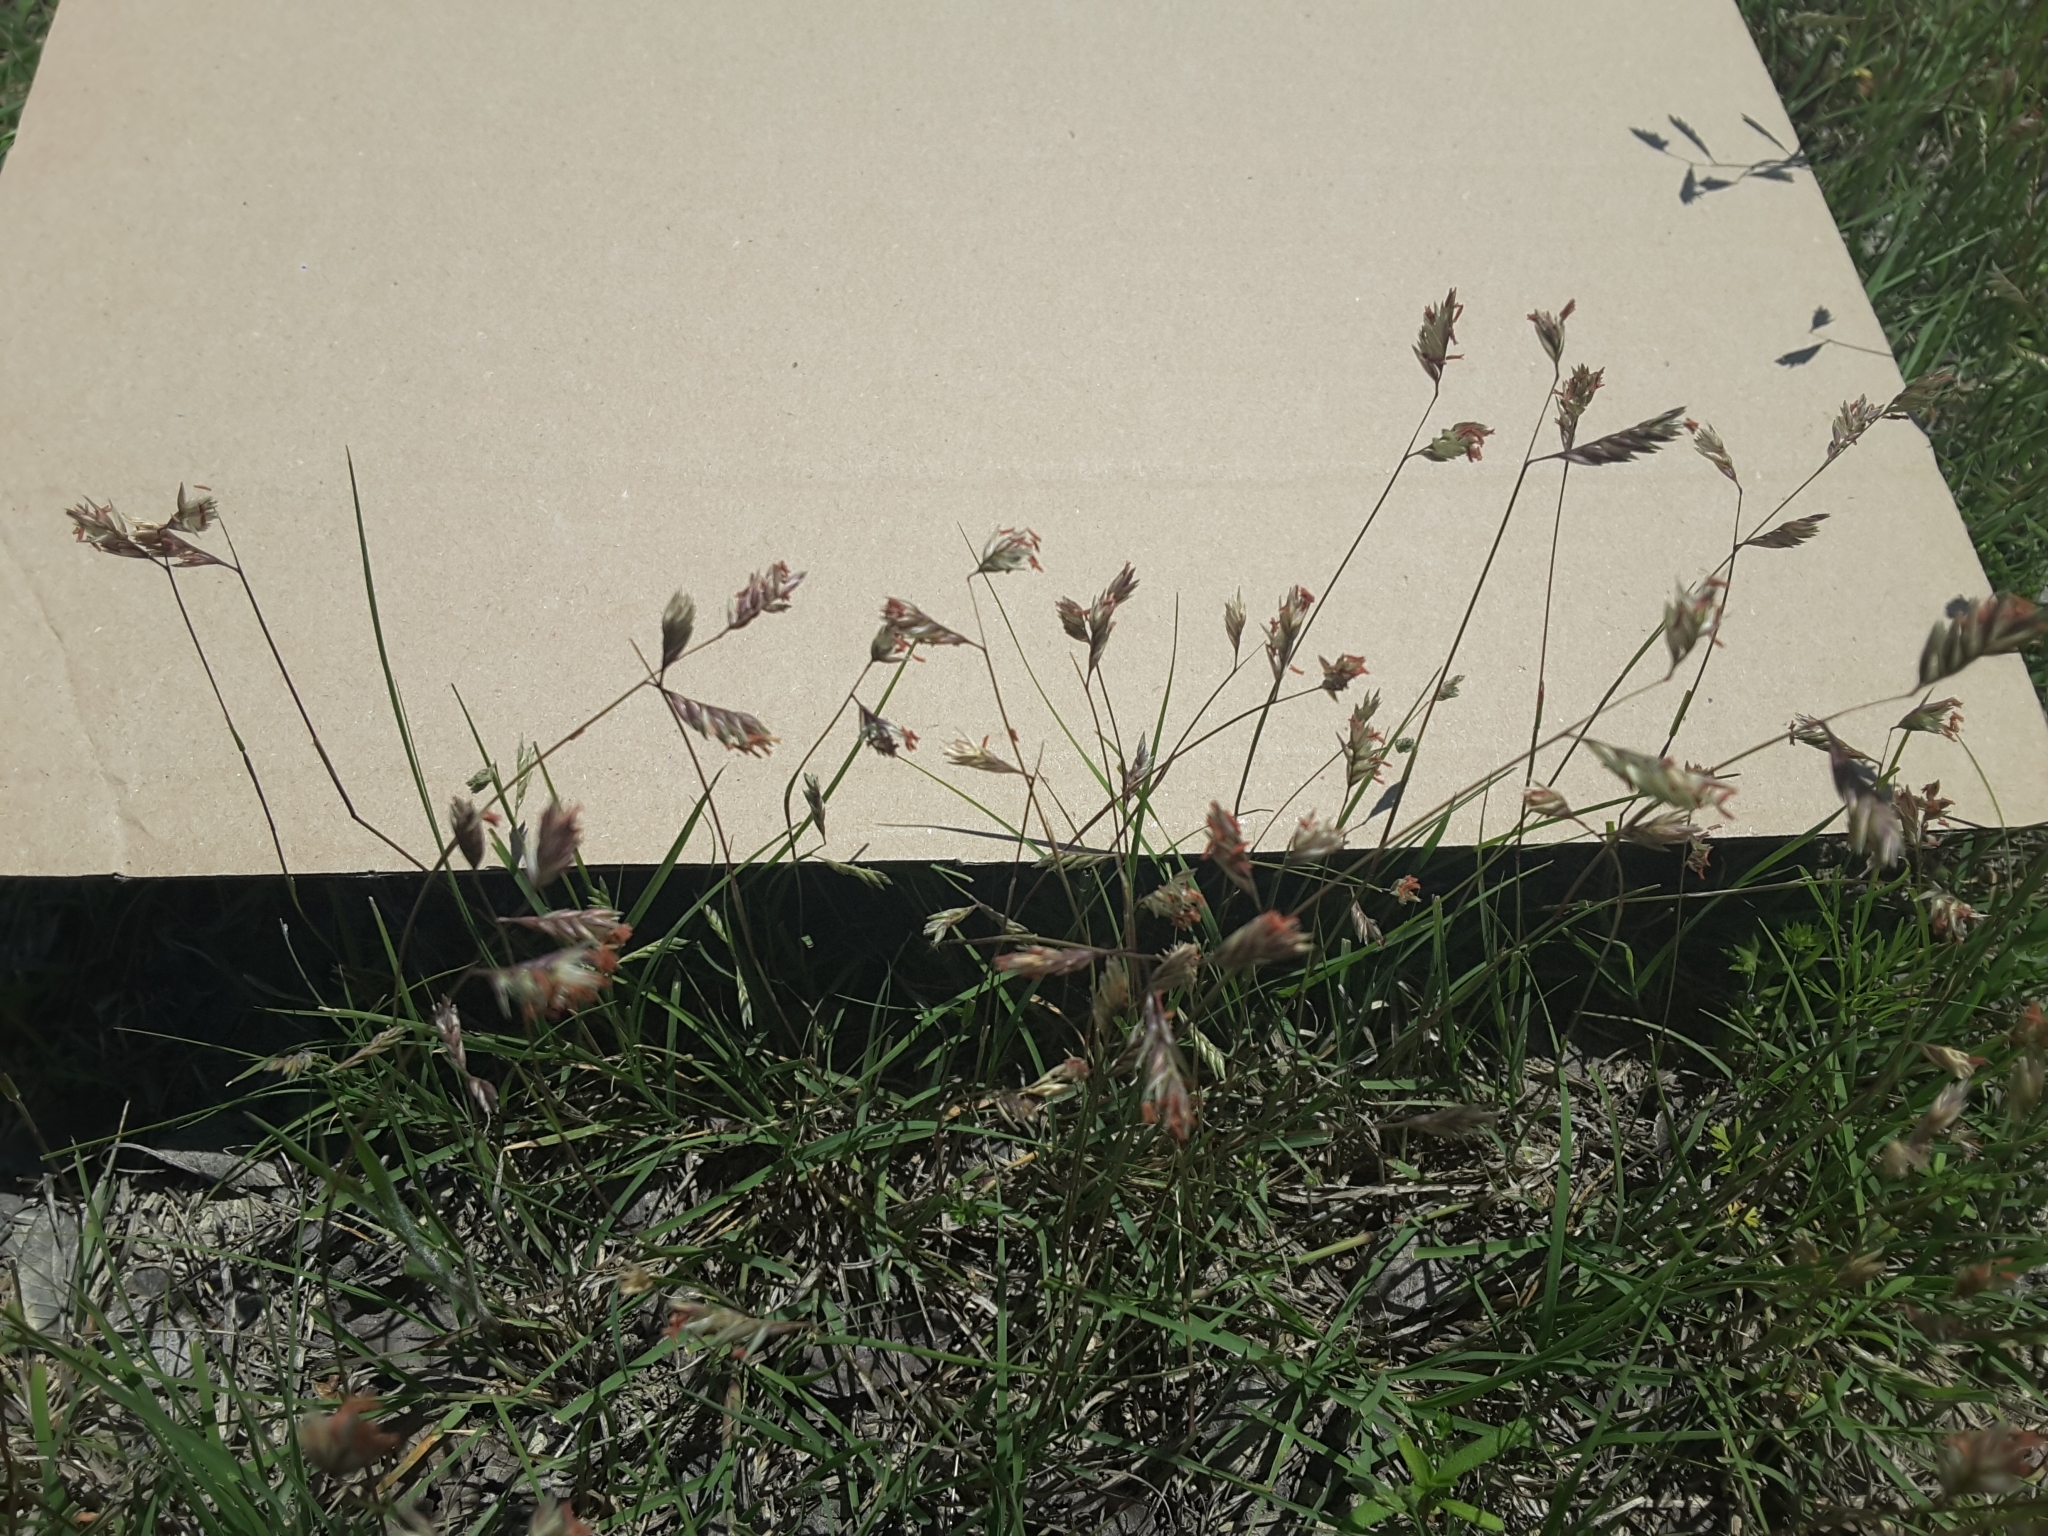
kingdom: Plantae
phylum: Tracheophyta
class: Liliopsida
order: Poales
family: Poaceae
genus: Bouteloua
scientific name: Bouteloua dactyloides
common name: Buffalo grass
